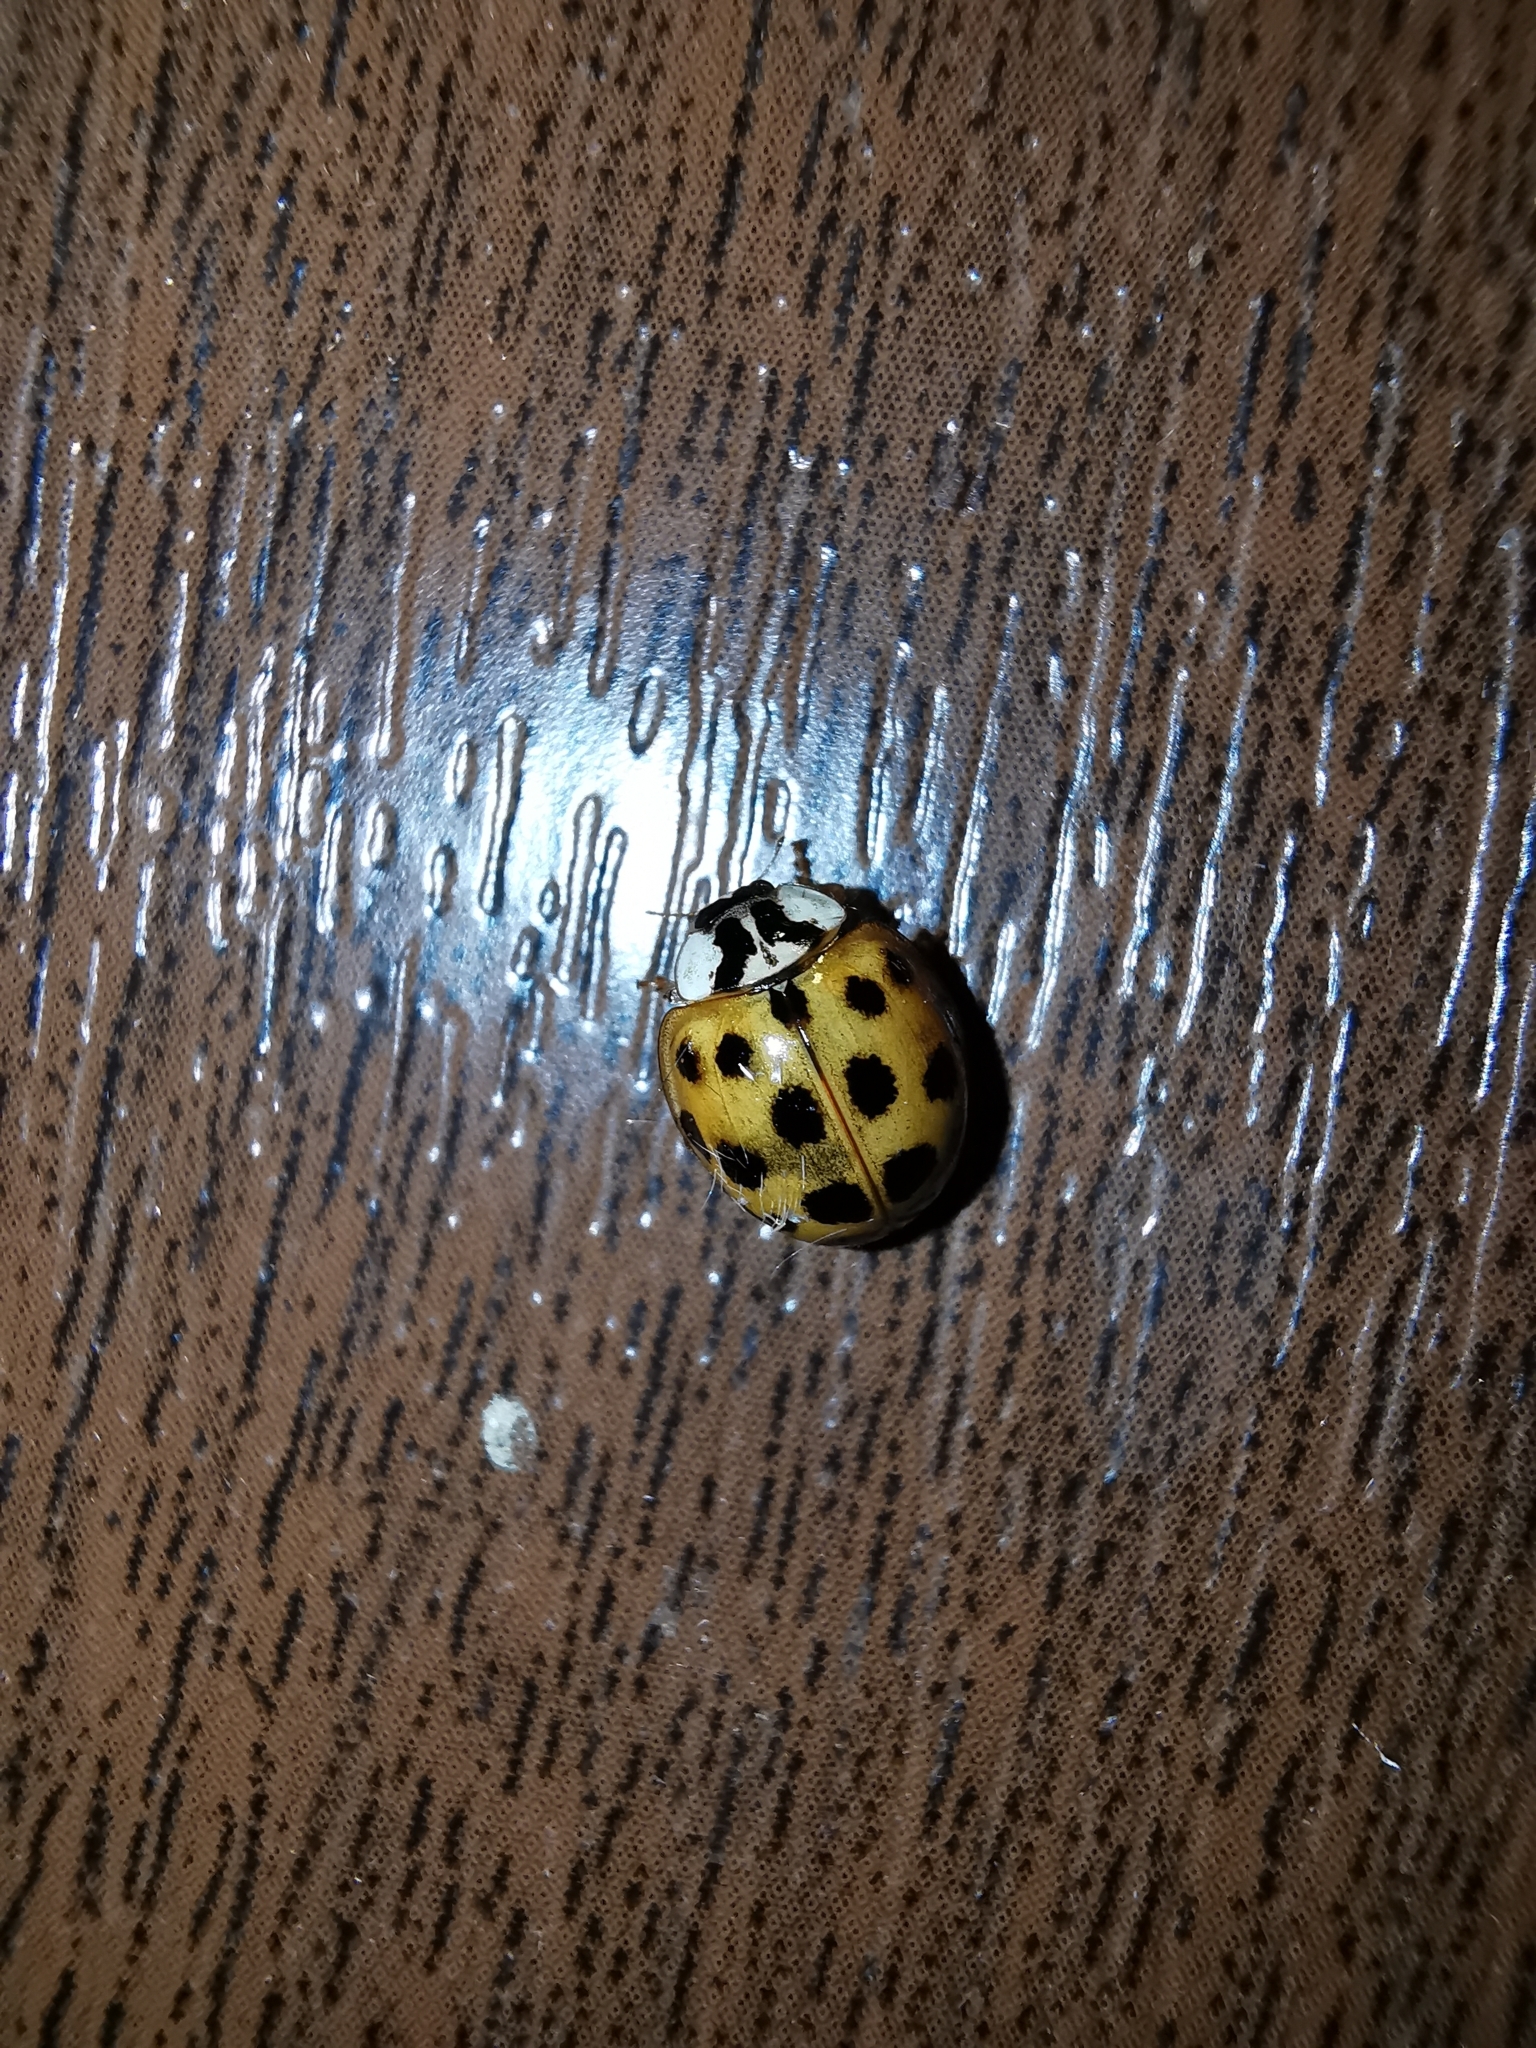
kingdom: Animalia
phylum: Arthropoda
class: Insecta
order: Coleoptera
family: Coccinellidae
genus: Harmonia
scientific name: Harmonia axyridis
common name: Harlequin ladybird
